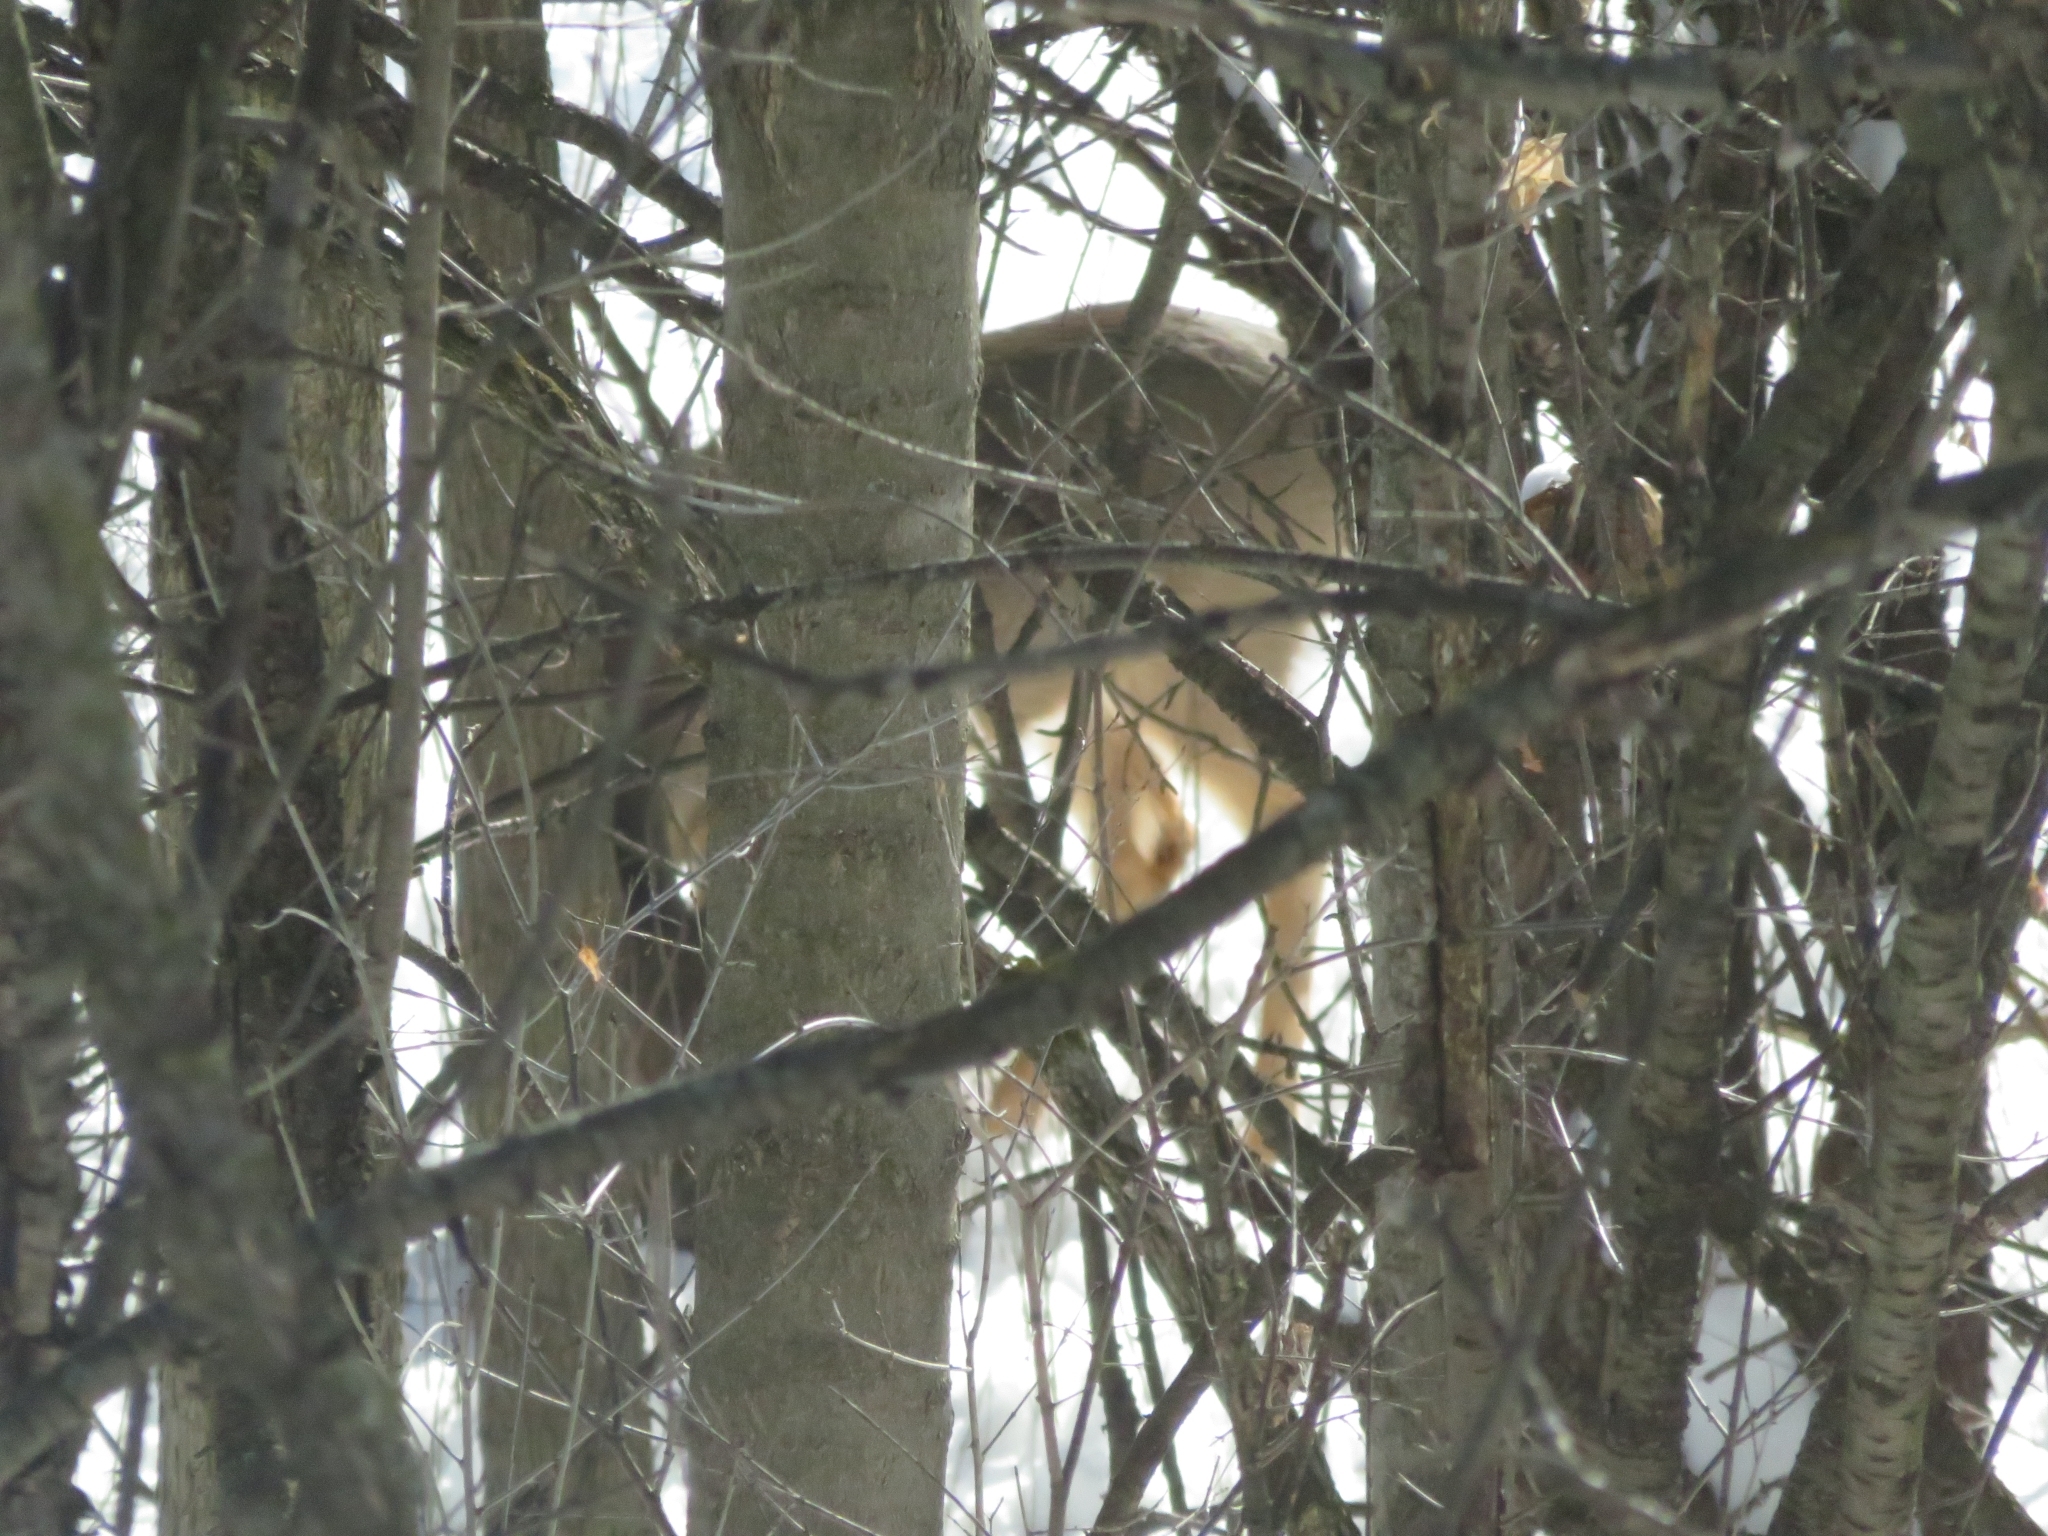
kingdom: Animalia
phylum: Chordata
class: Mammalia
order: Artiodactyla
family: Cervidae
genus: Odocoileus
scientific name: Odocoileus virginianus
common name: White-tailed deer
